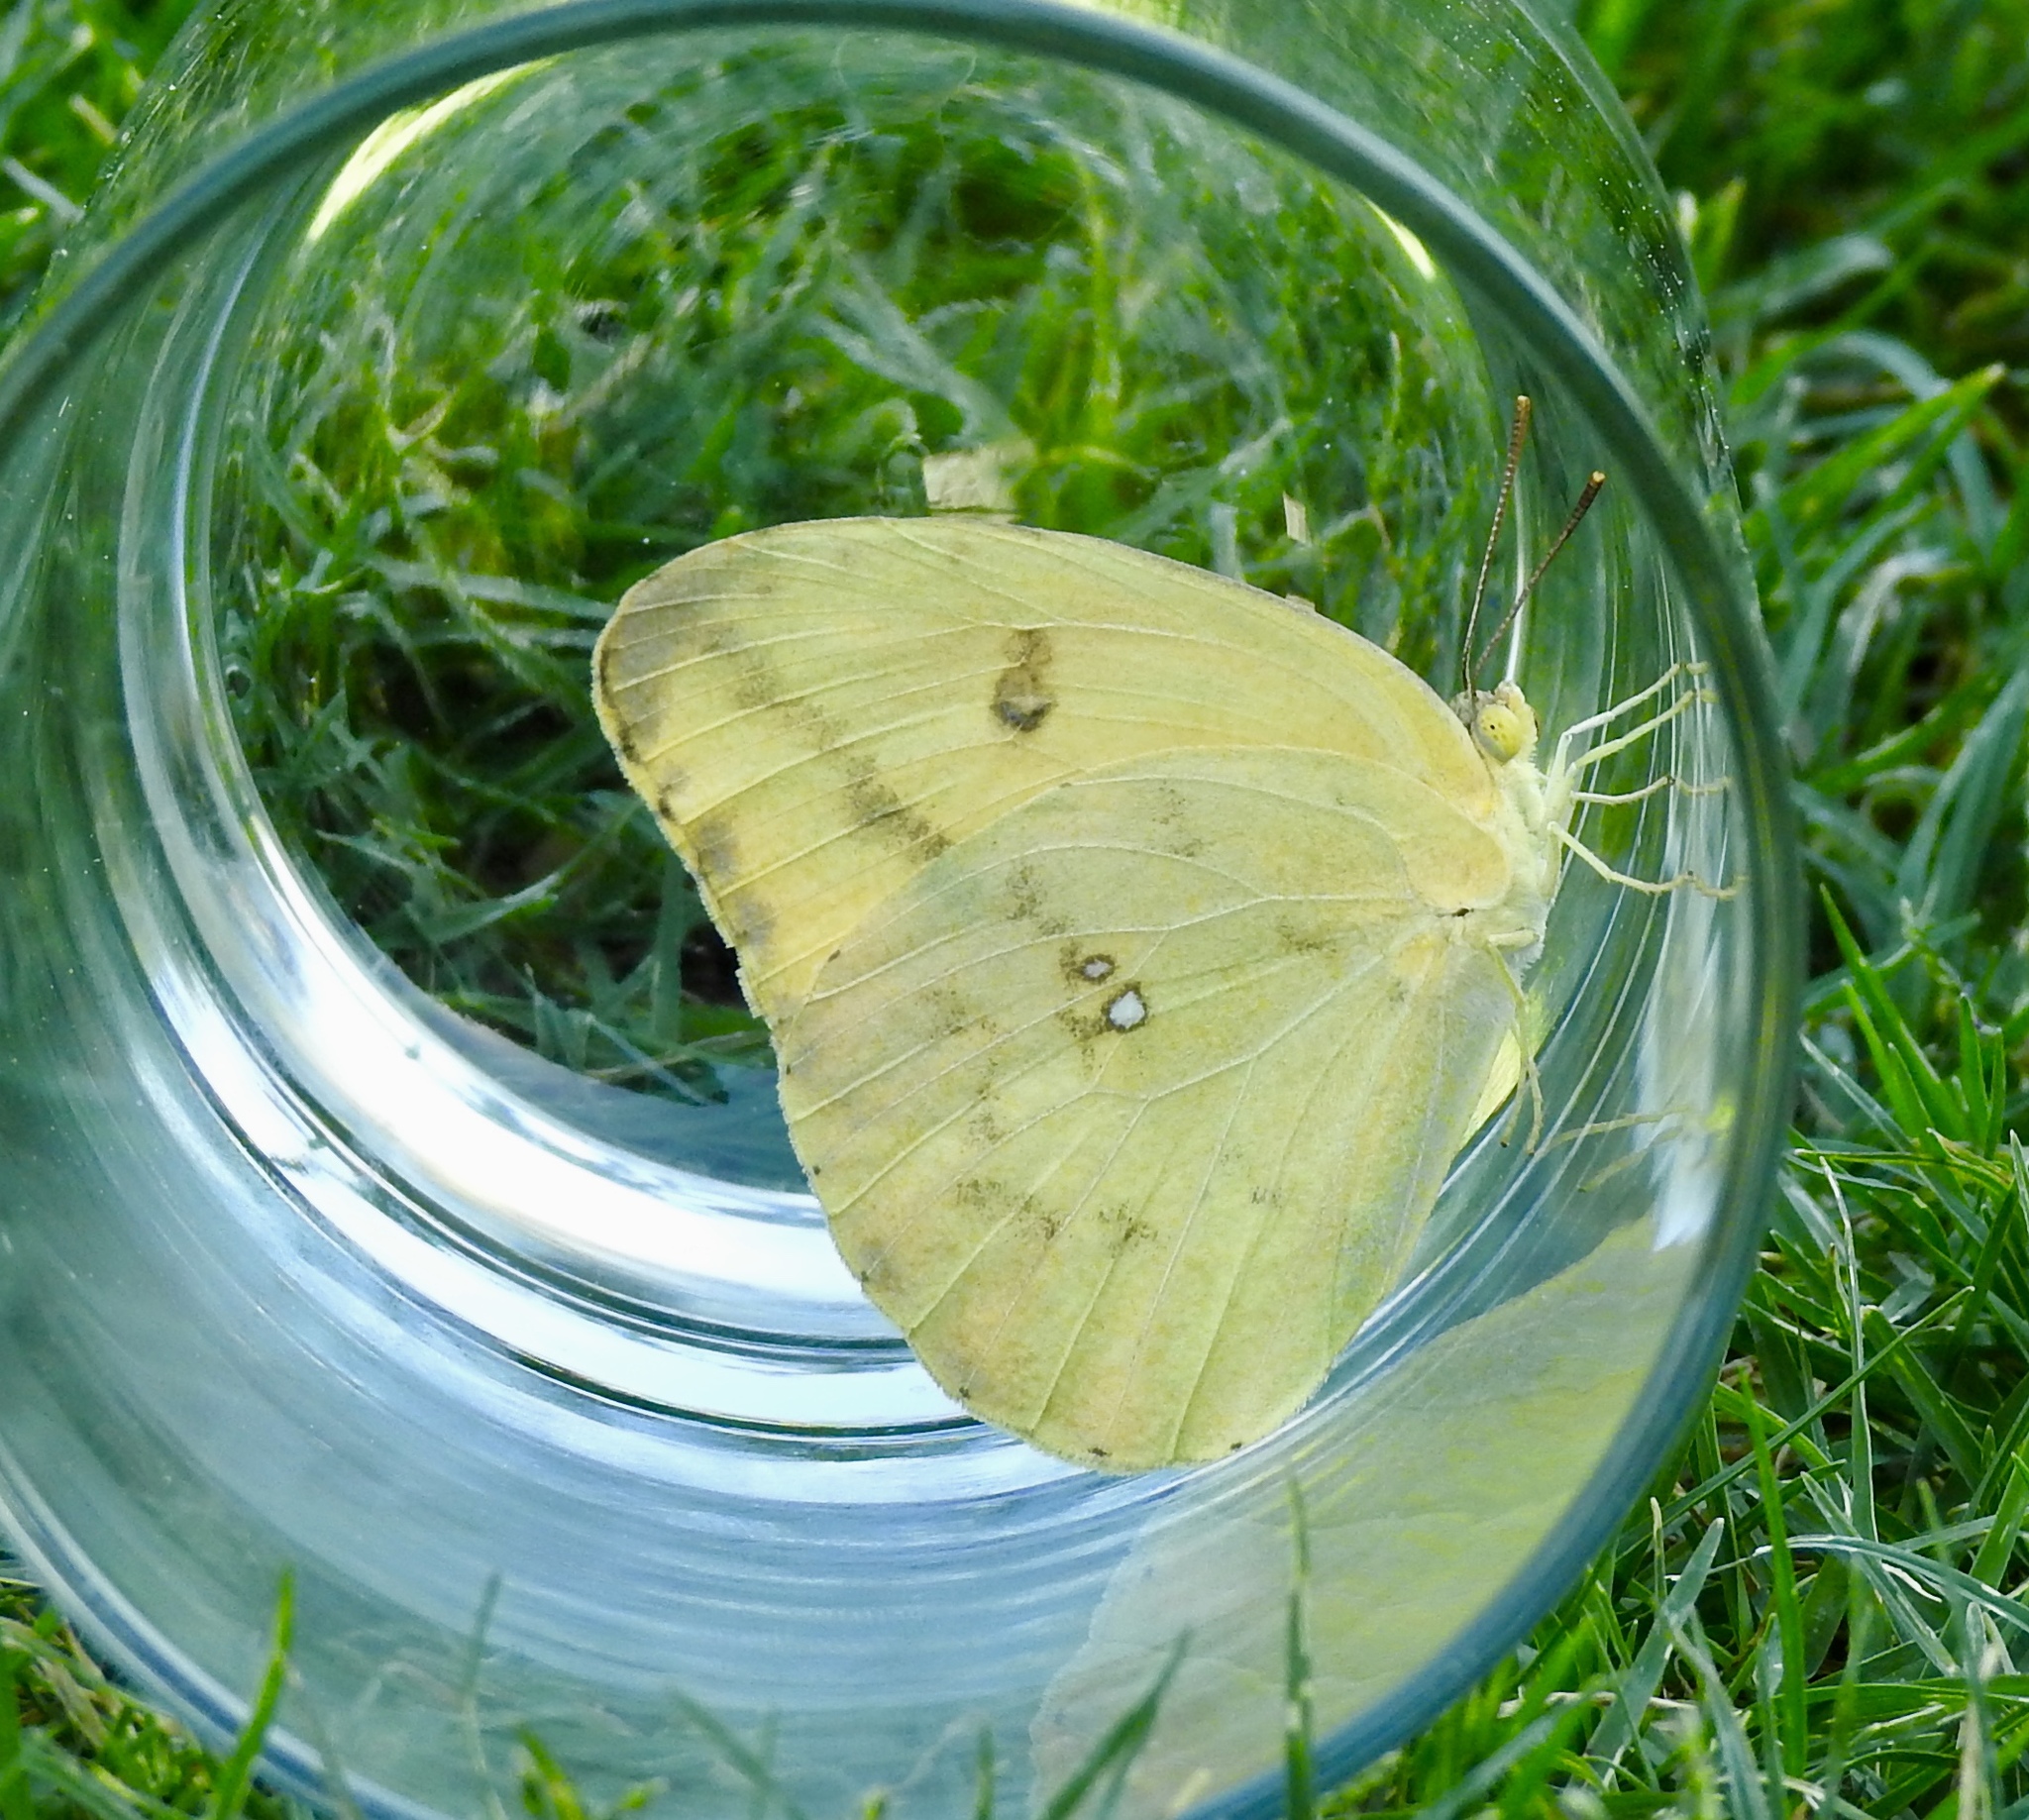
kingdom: Animalia
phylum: Arthropoda
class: Insecta
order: Lepidoptera
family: Pieridae
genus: Phoebis
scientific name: Phoebis agarithe
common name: Large orange sulphur
